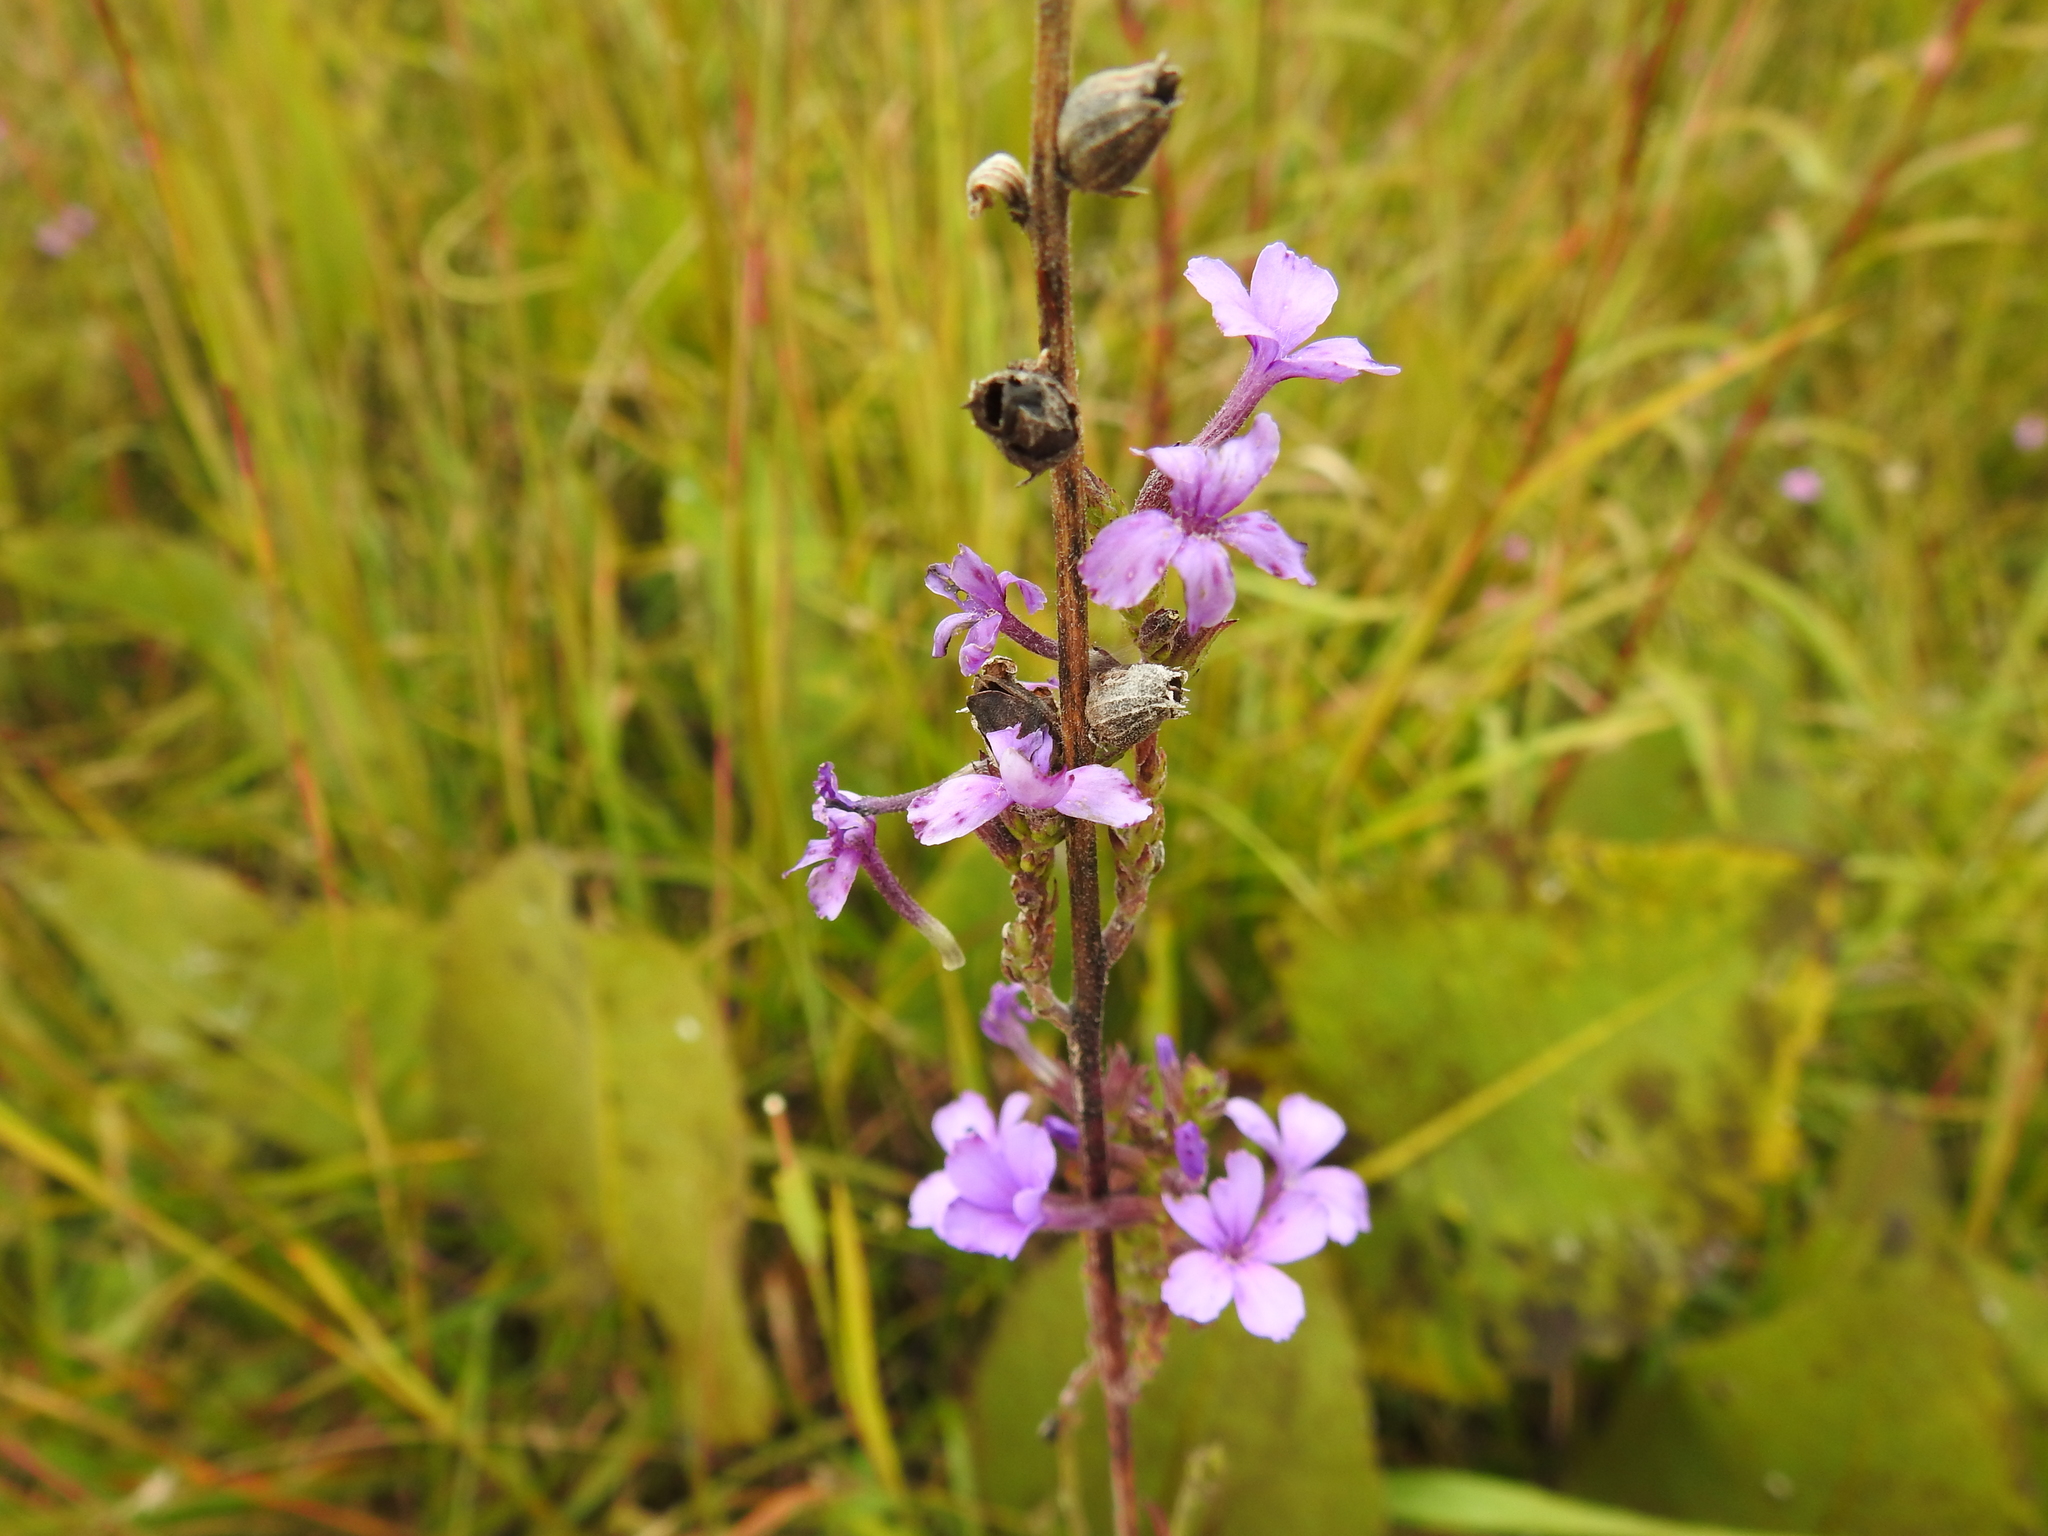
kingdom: Plantae
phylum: Tracheophyta
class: Magnoliopsida
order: Lamiales
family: Orobanchaceae
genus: Buchnera
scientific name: Buchnera americana
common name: American bluehearts
